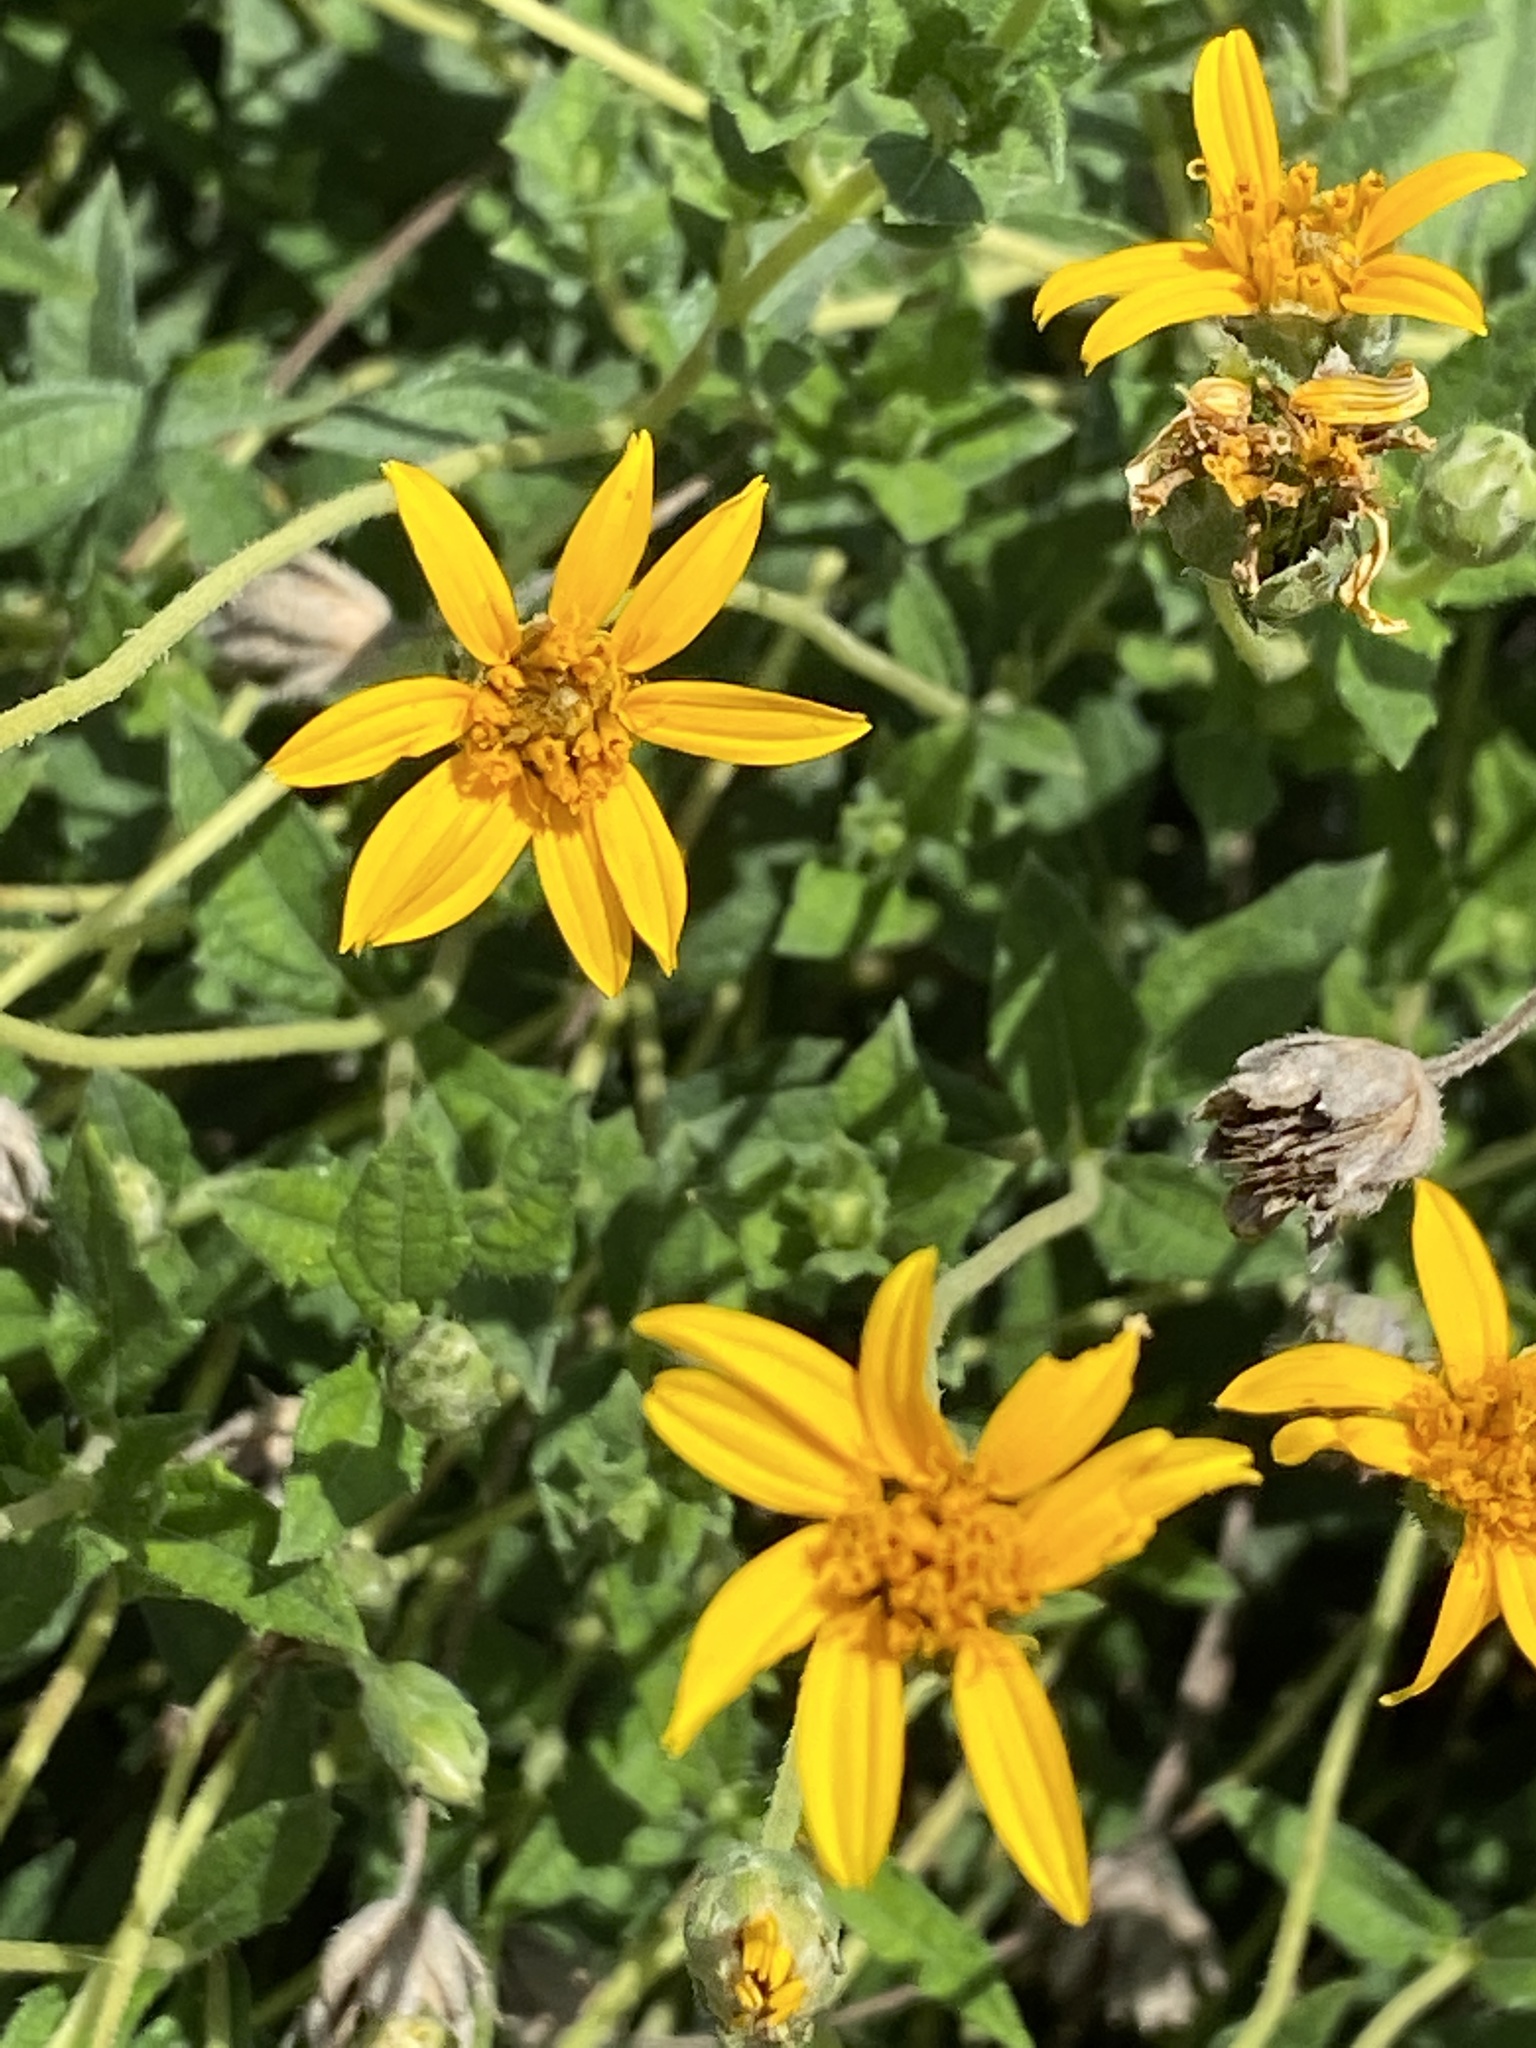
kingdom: Plantae
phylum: Tracheophyta
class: Magnoliopsida
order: Asterales
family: Asteraceae
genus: Wedelia
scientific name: Wedelia acapulcensis
